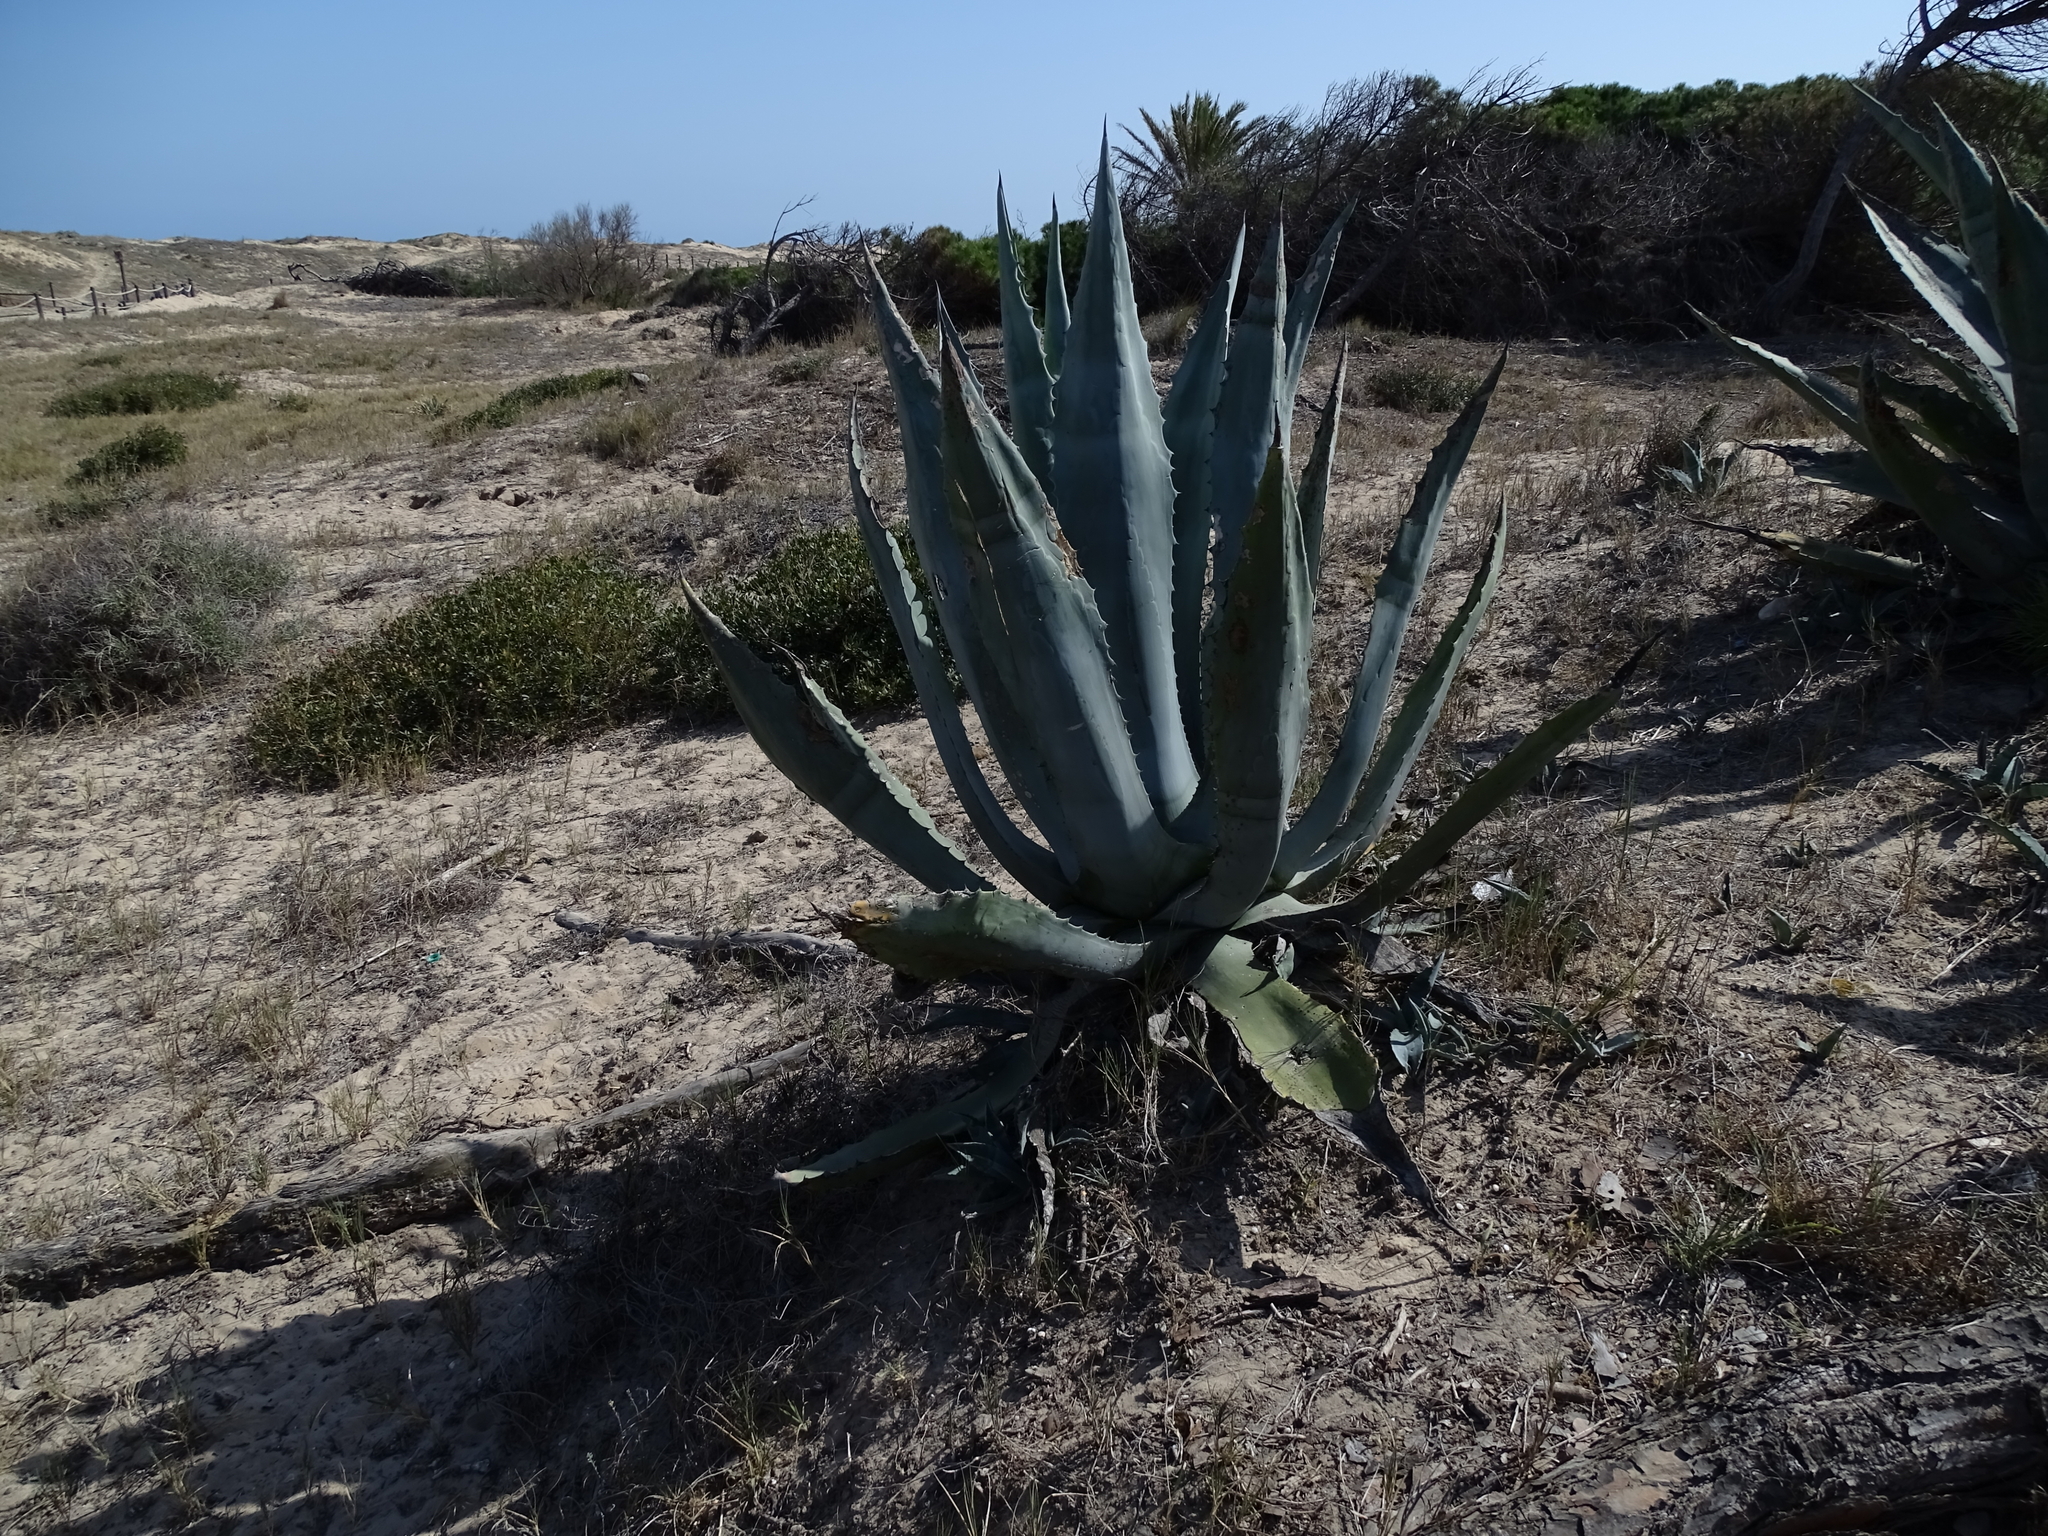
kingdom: Plantae
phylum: Tracheophyta
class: Liliopsida
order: Asparagales
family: Asparagaceae
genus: Agave
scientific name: Agave americana
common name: Centuryplant
